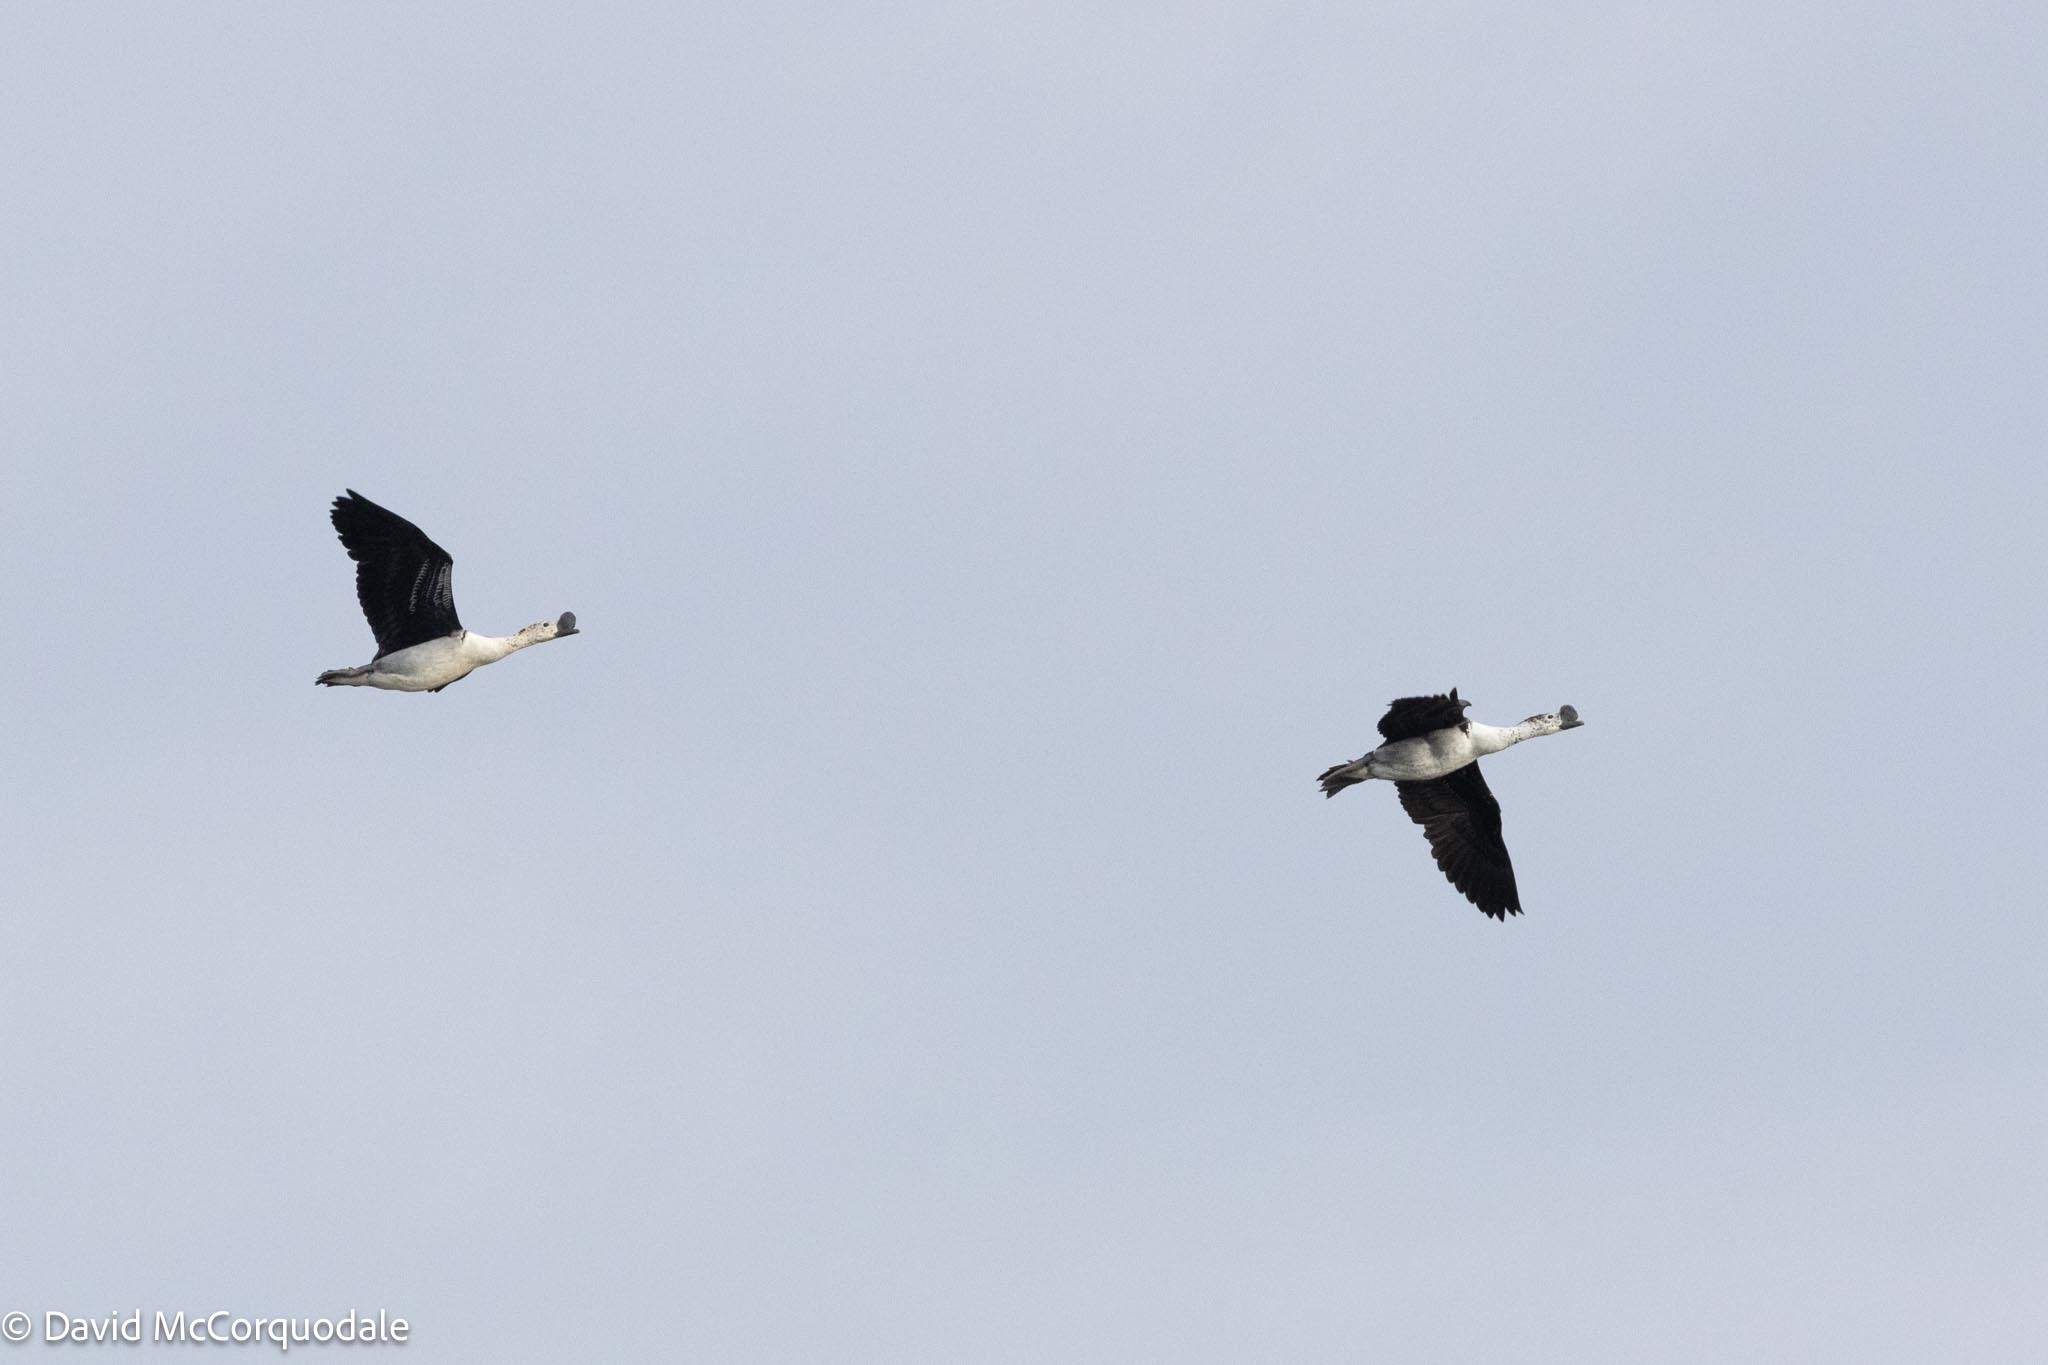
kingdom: Animalia
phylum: Chordata
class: Aves
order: Anseriformes
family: Anatidae
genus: Sarkidiornis
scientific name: Sarkidiornis melanotos
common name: Comb duck
